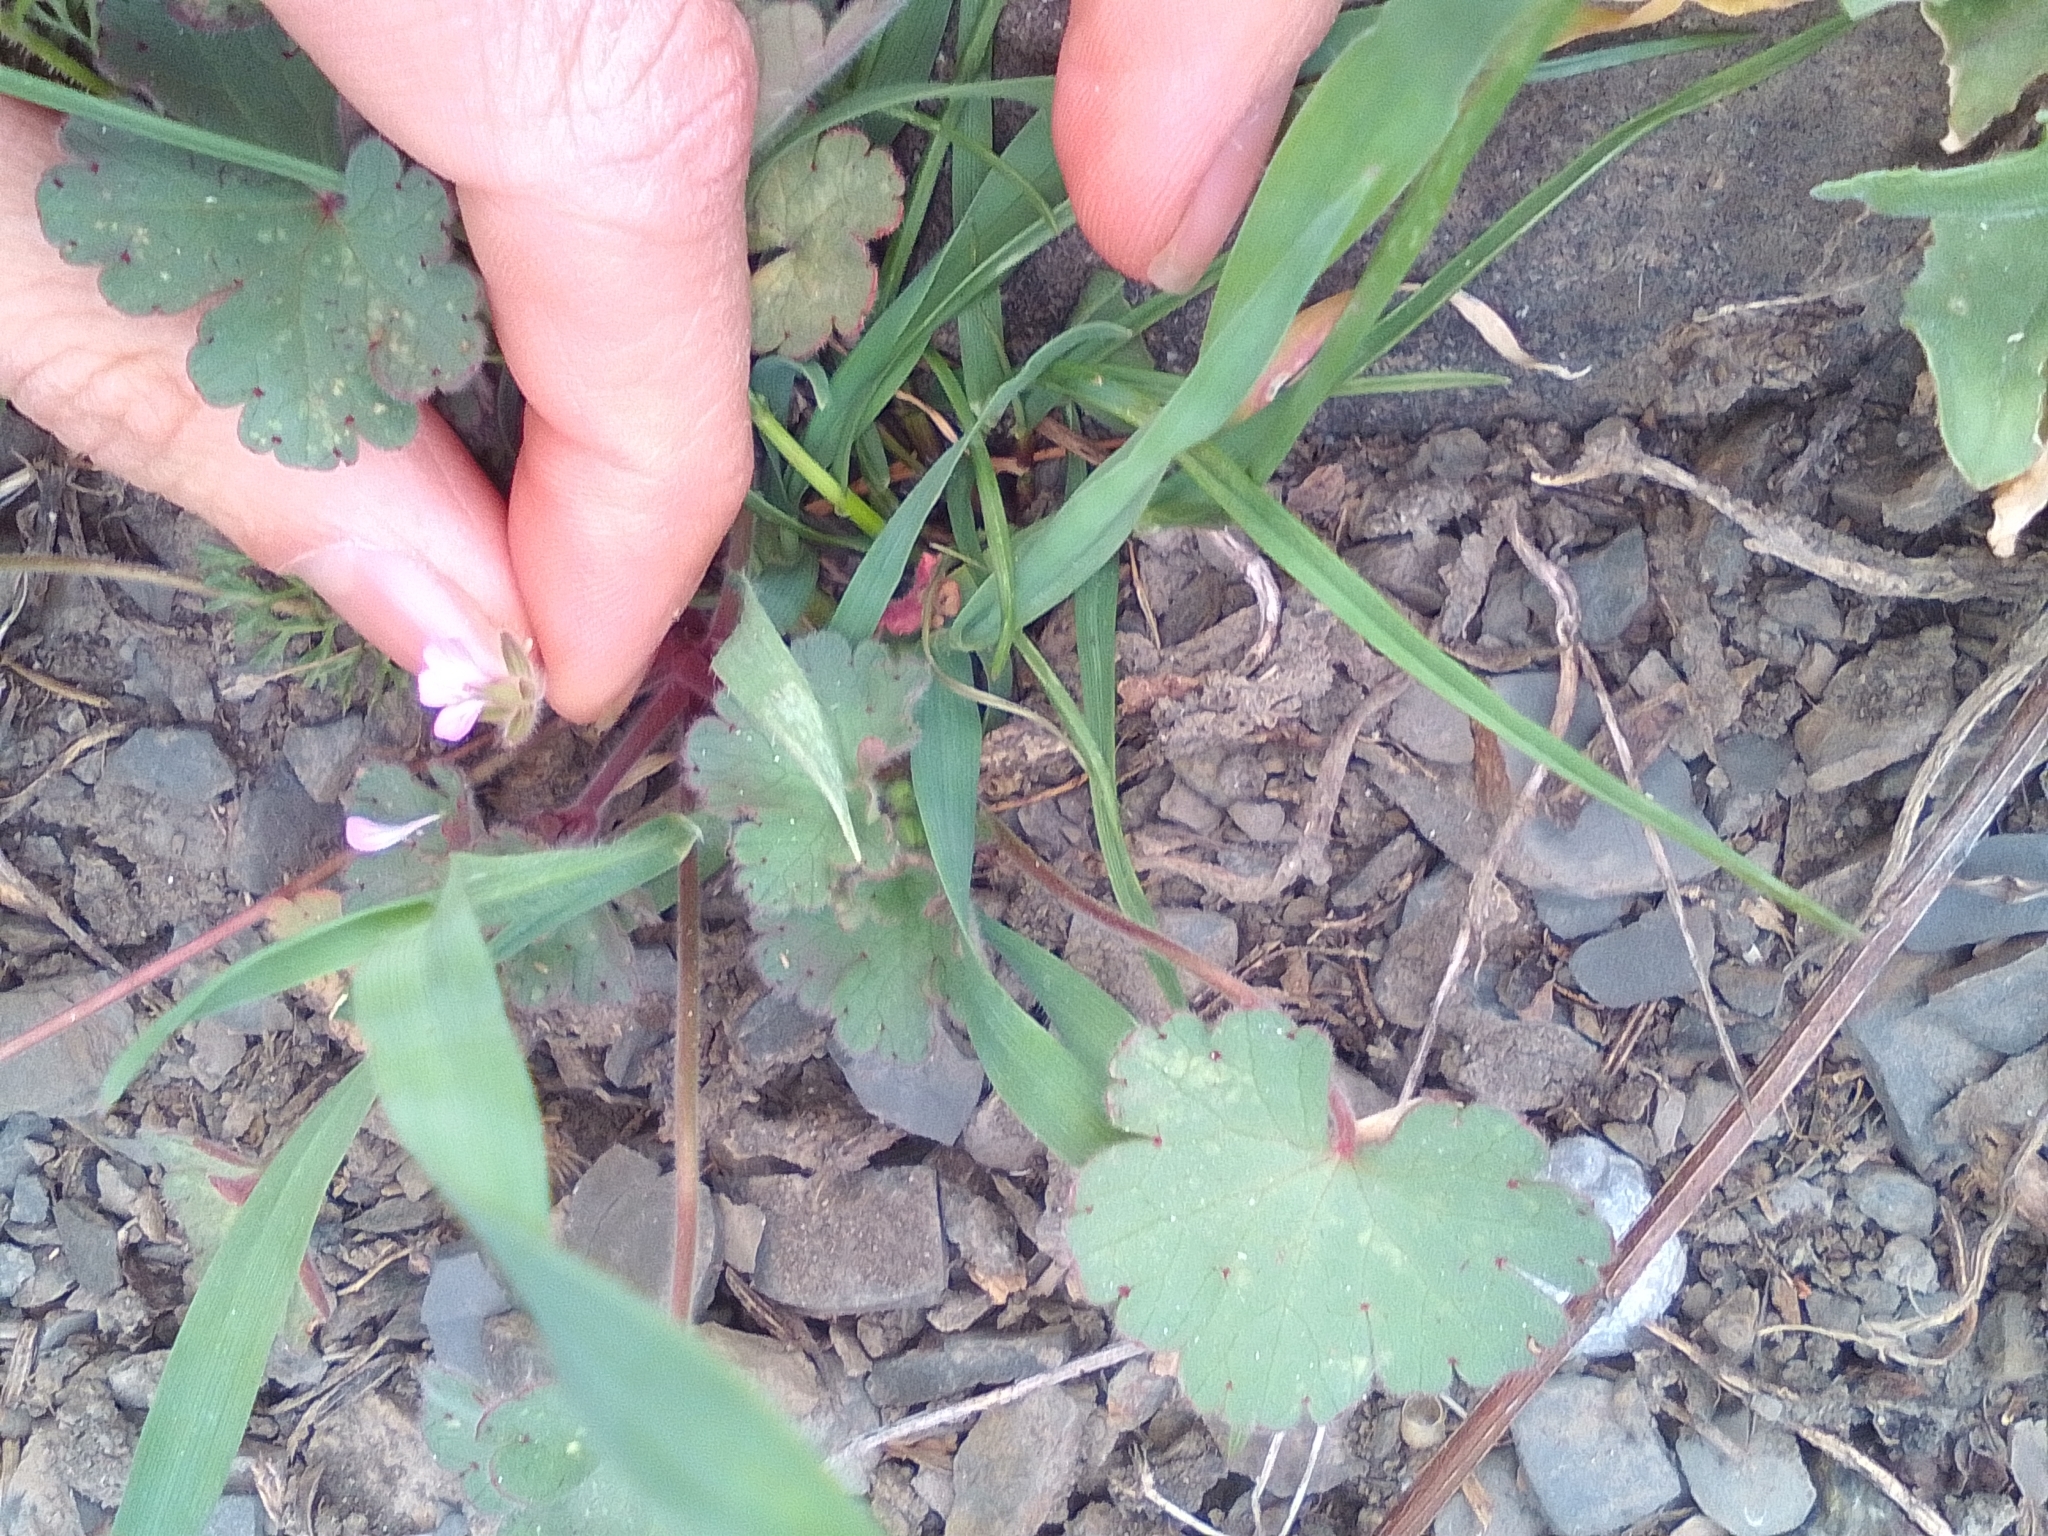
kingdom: Plantae
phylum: Tracheophyta
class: Magnoliopsida
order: Geraniales
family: Geraniaceae
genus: Geranium
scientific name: Geranium molle
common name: Dove's-foot crane's-bill
